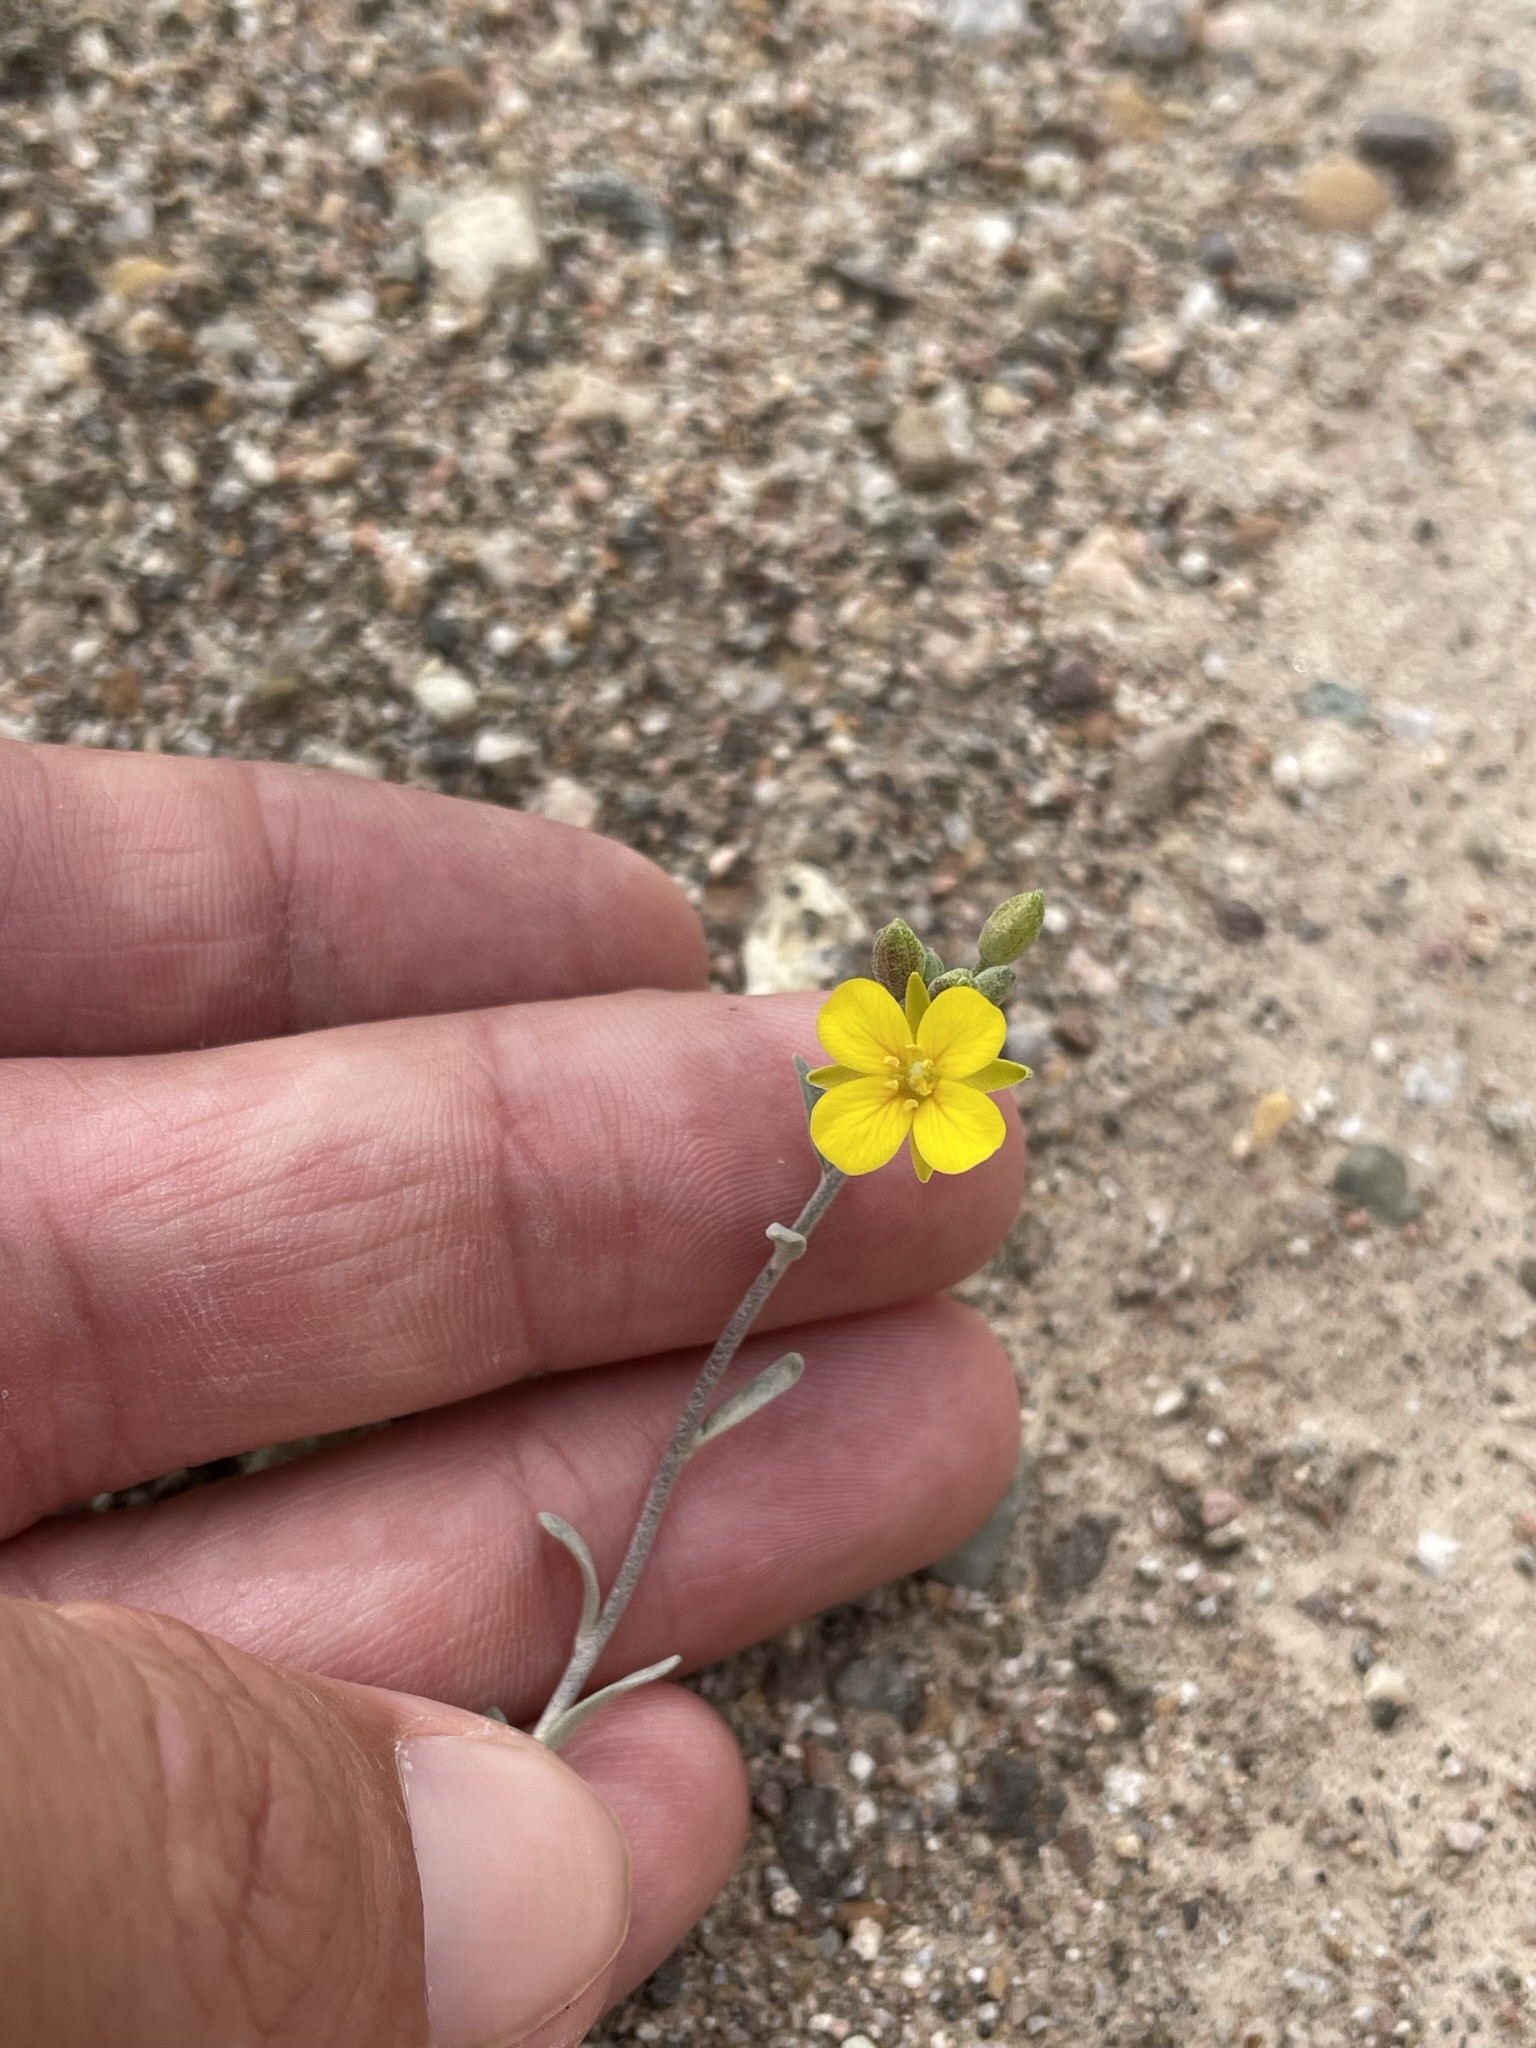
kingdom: Plantae
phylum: Tracheophyta
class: Magnoliopsida
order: Brassicales
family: Brassicaceae
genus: Physaria
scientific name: Physaria tenella
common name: Moapa bladderpod
